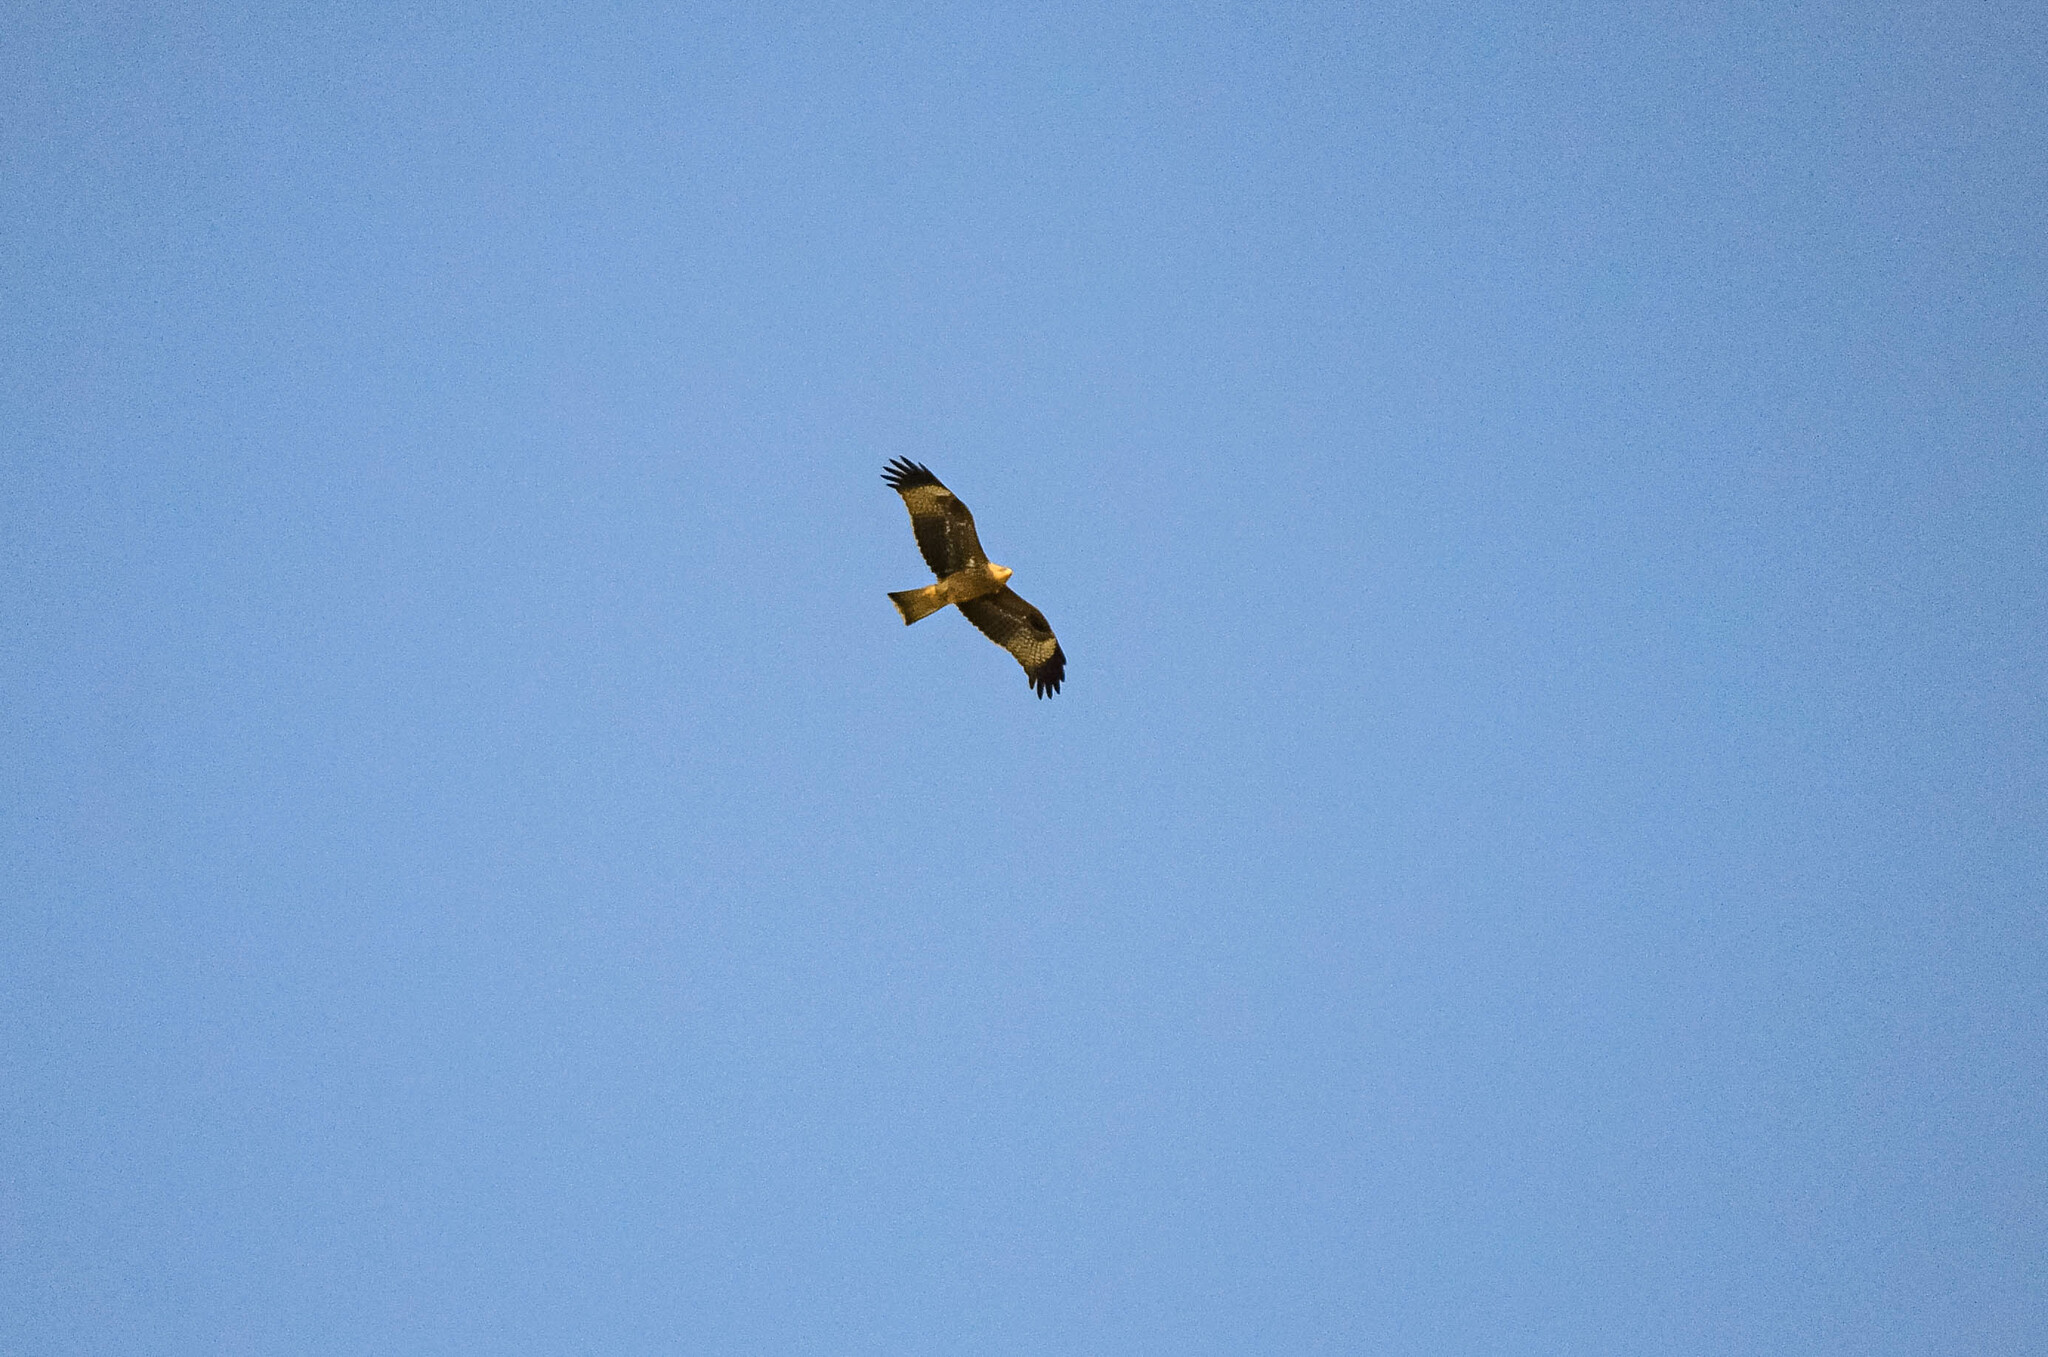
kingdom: Animalia
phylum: Chordata
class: Aves
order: Accipitriformes
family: Accipitridae
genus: Milvus
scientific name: Milvus migrans
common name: Black kite
